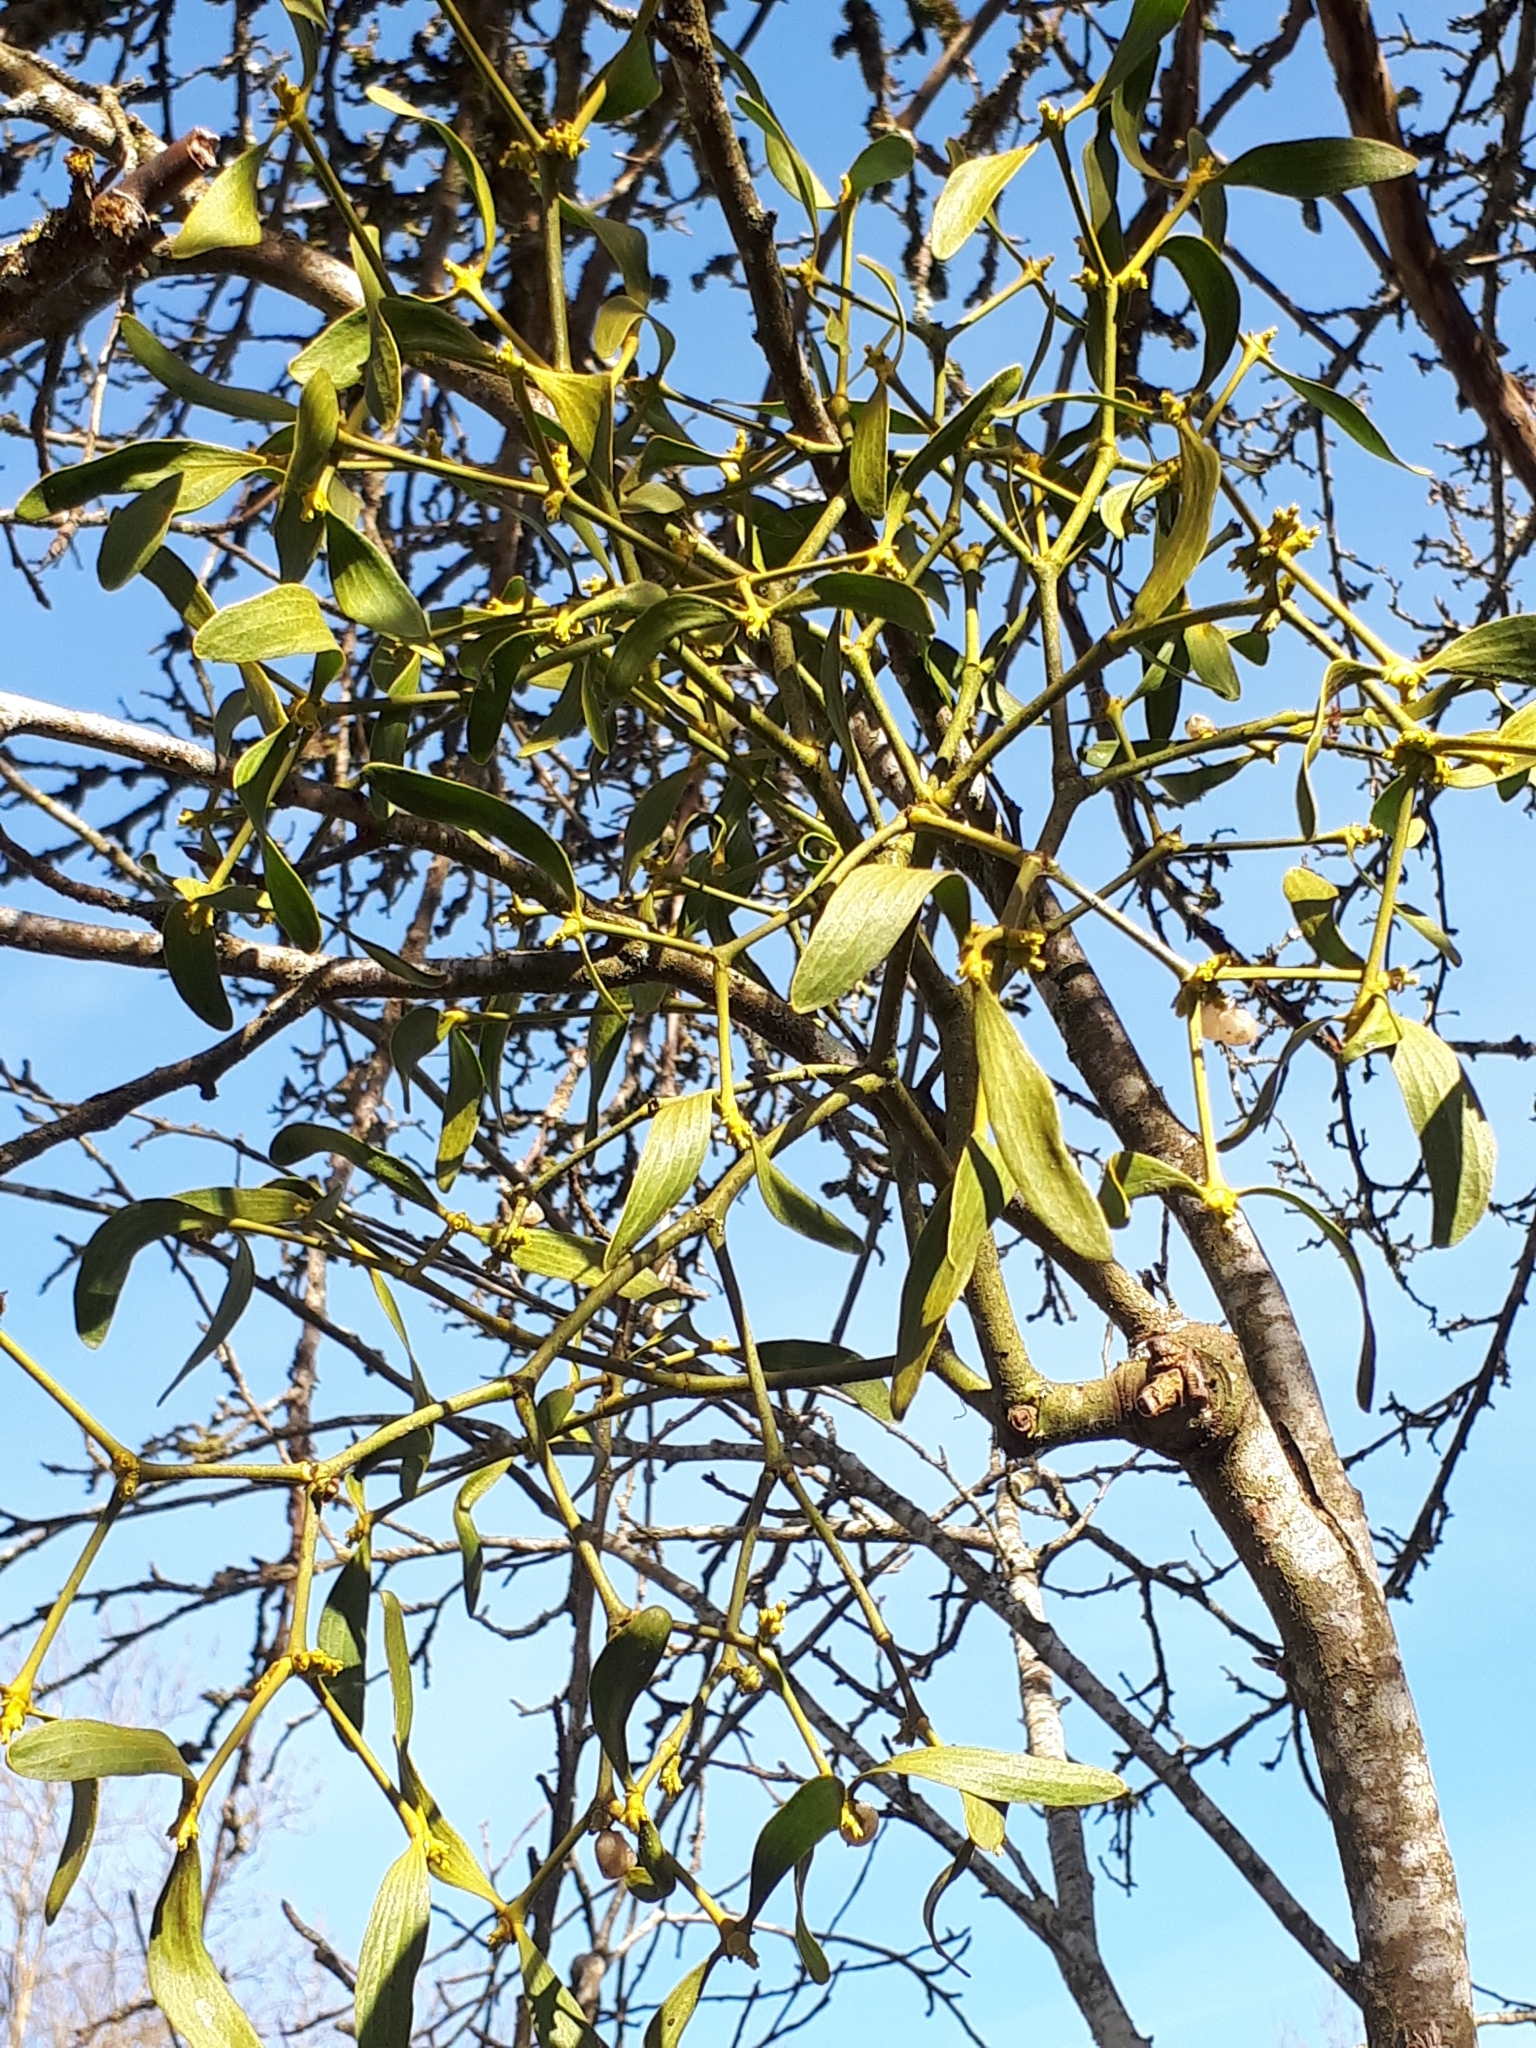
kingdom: Plantae
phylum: Tracheophyta
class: Magnoliopsida
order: Santalales
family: Viscaceae
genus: Viscum
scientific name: Viscum album
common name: Mistletoe
